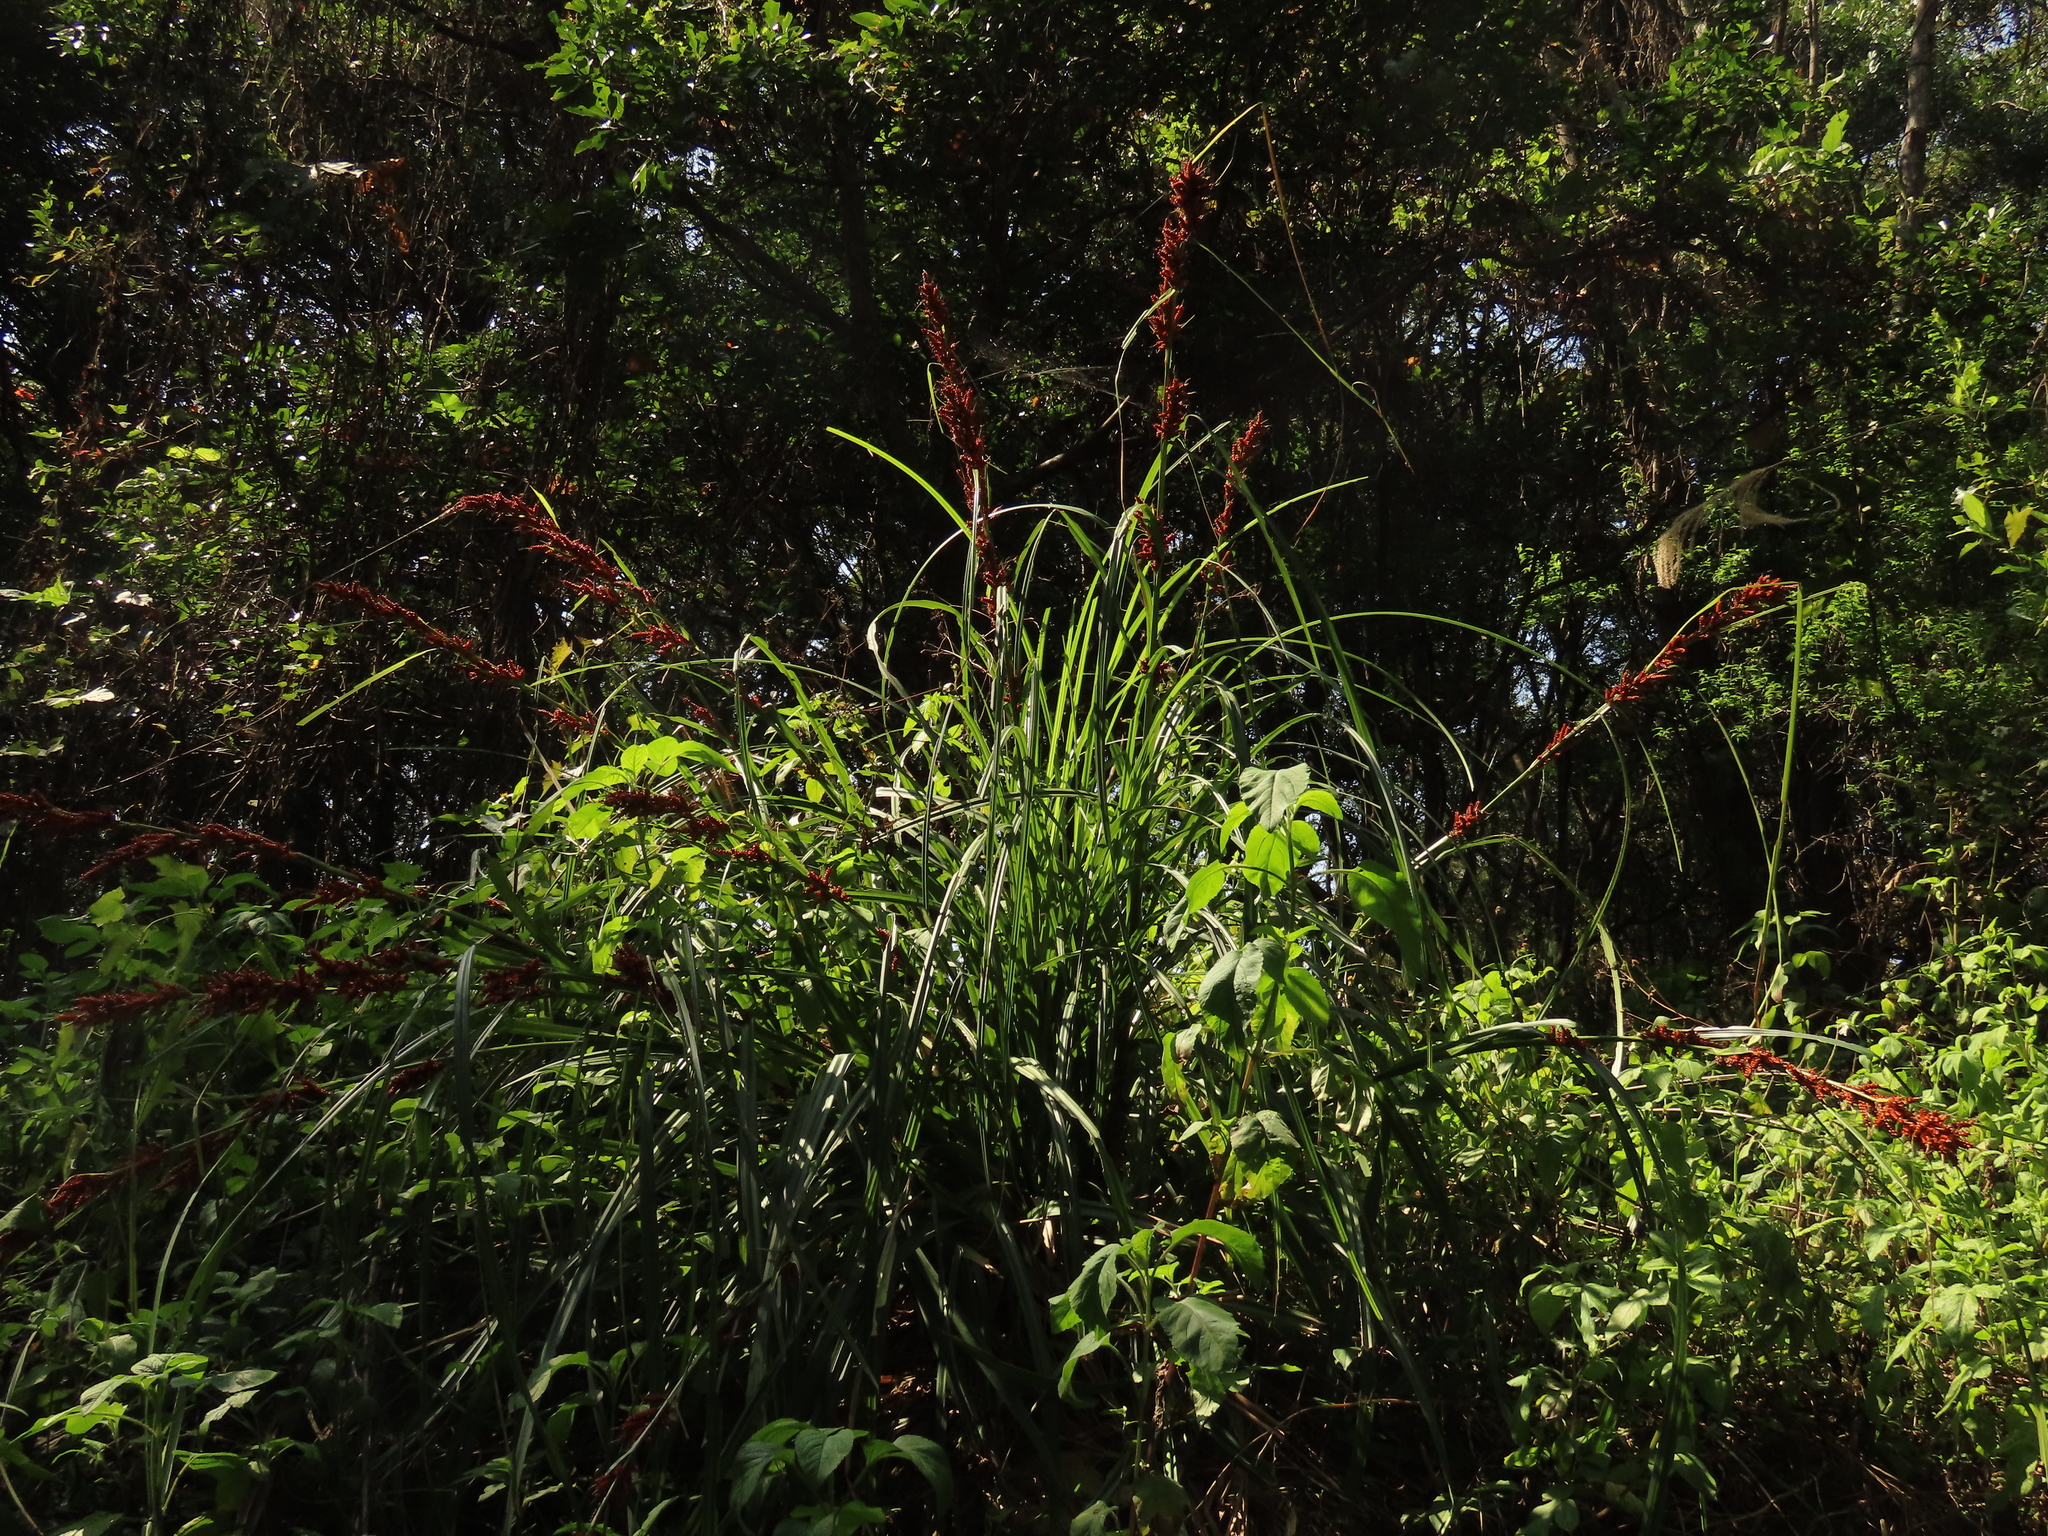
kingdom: Plantae
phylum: Tracheophyta
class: Liliopsida
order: Poales
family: Cyperaceae
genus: Carex
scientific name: Carex baccans
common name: Crimson seeded sedge
